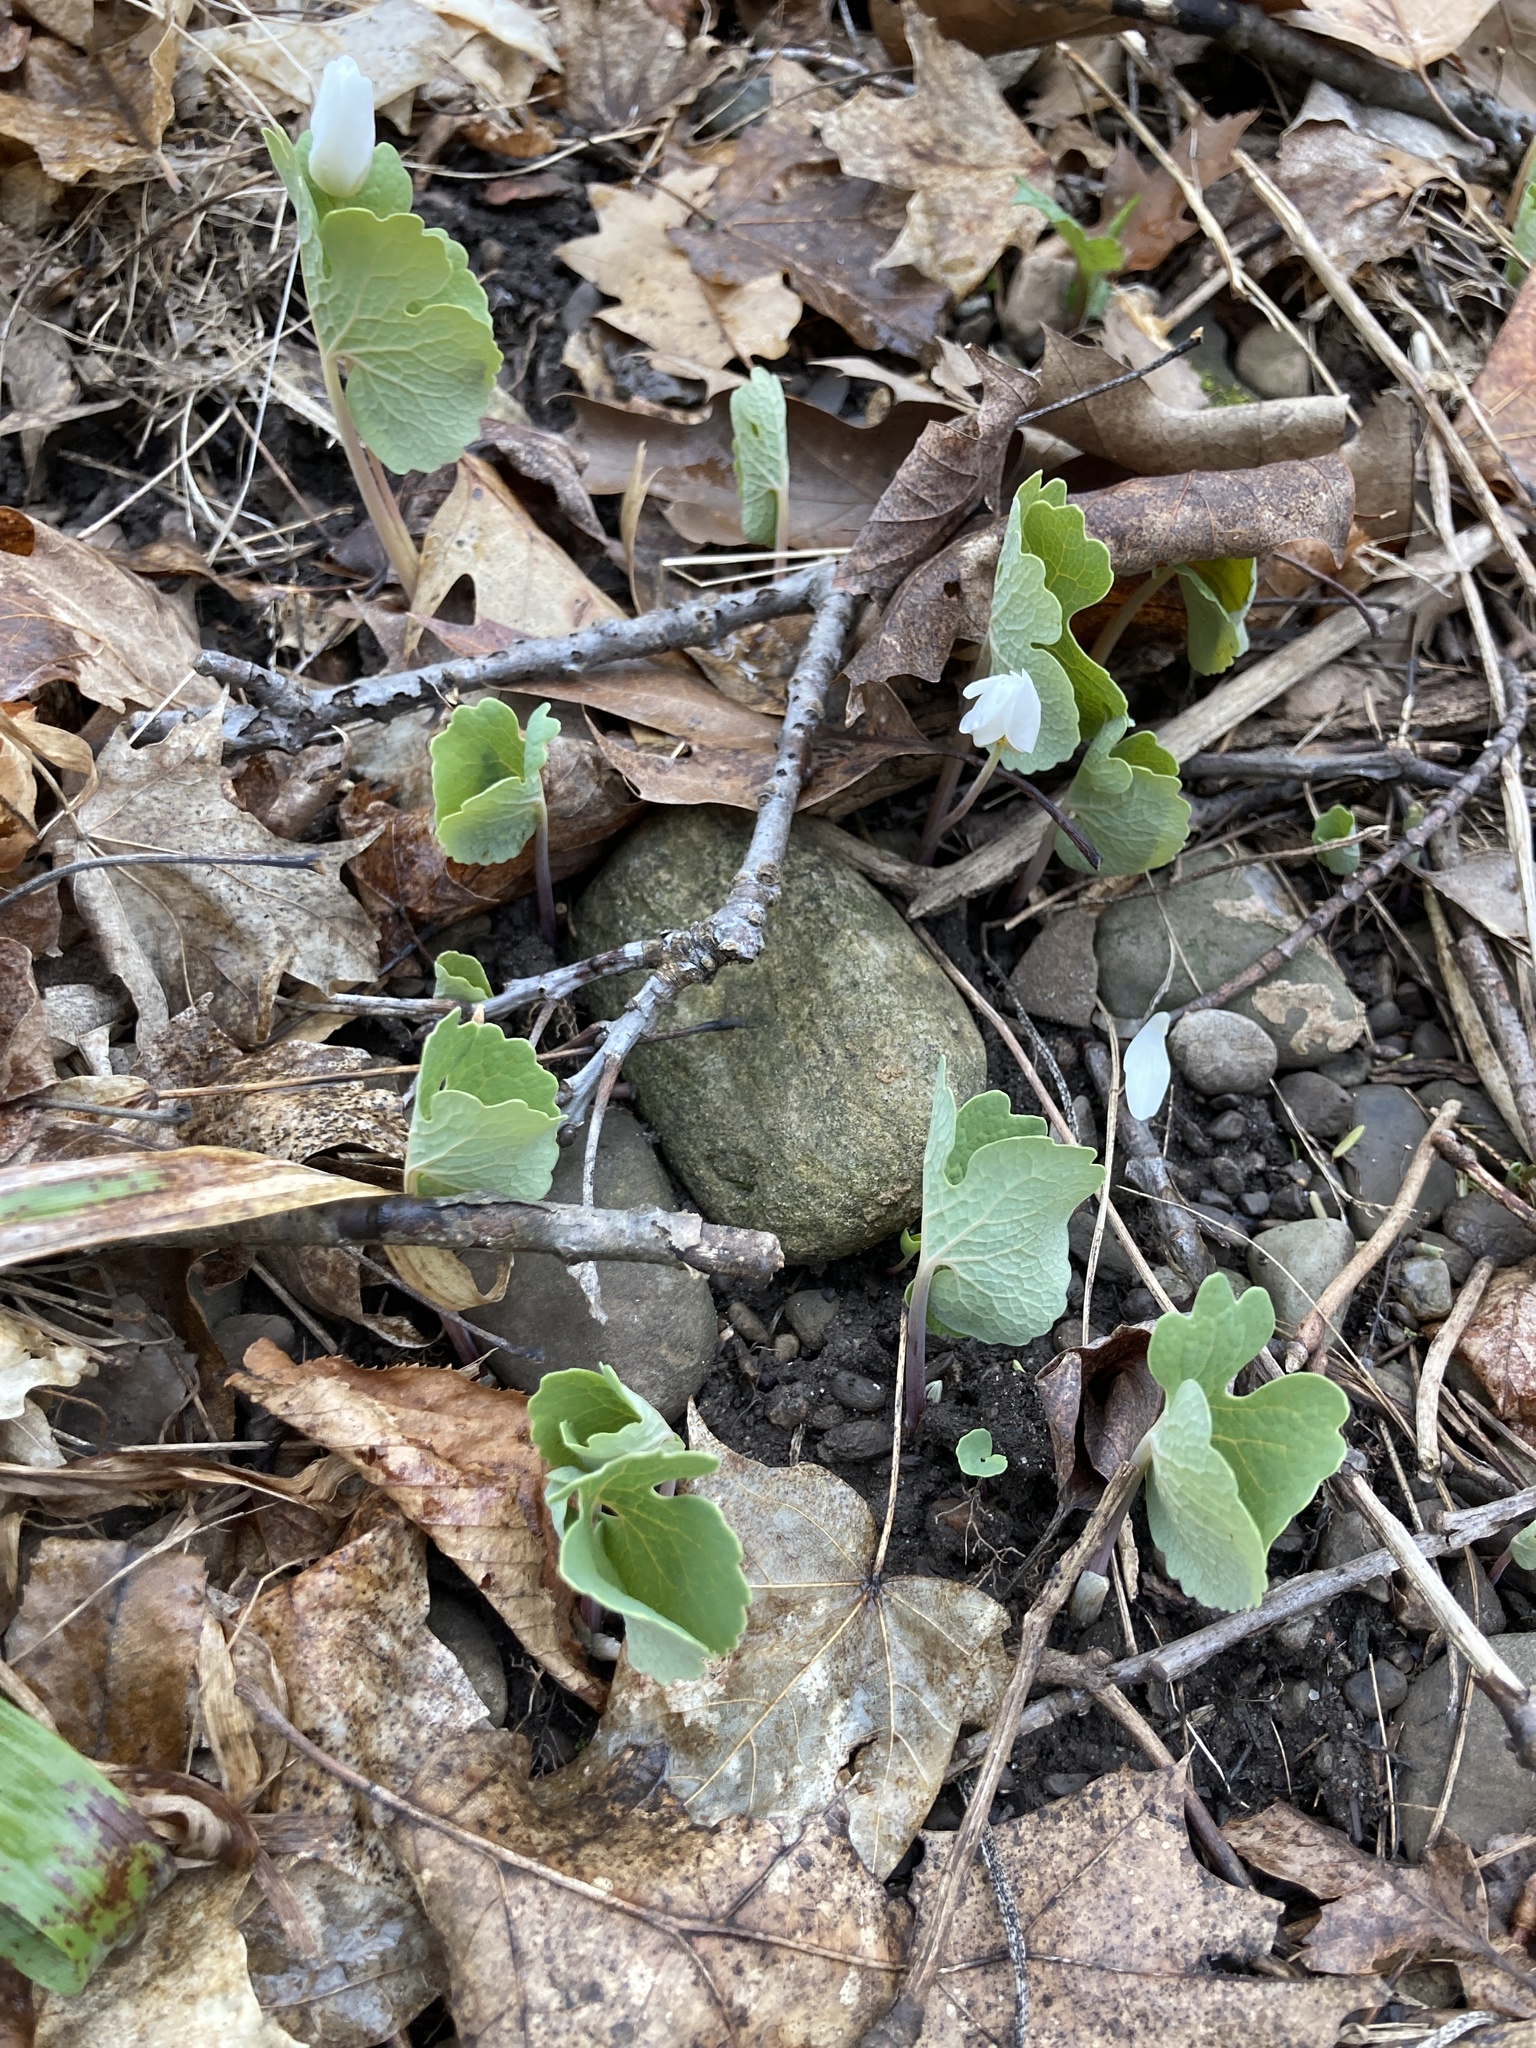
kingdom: Plantae
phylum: Tracheophyta
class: Magnoliopsida
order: Ranunculales
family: Papaveraceae
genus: Sanguinaria
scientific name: Sanguinaria canadensis
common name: Bloodroot
